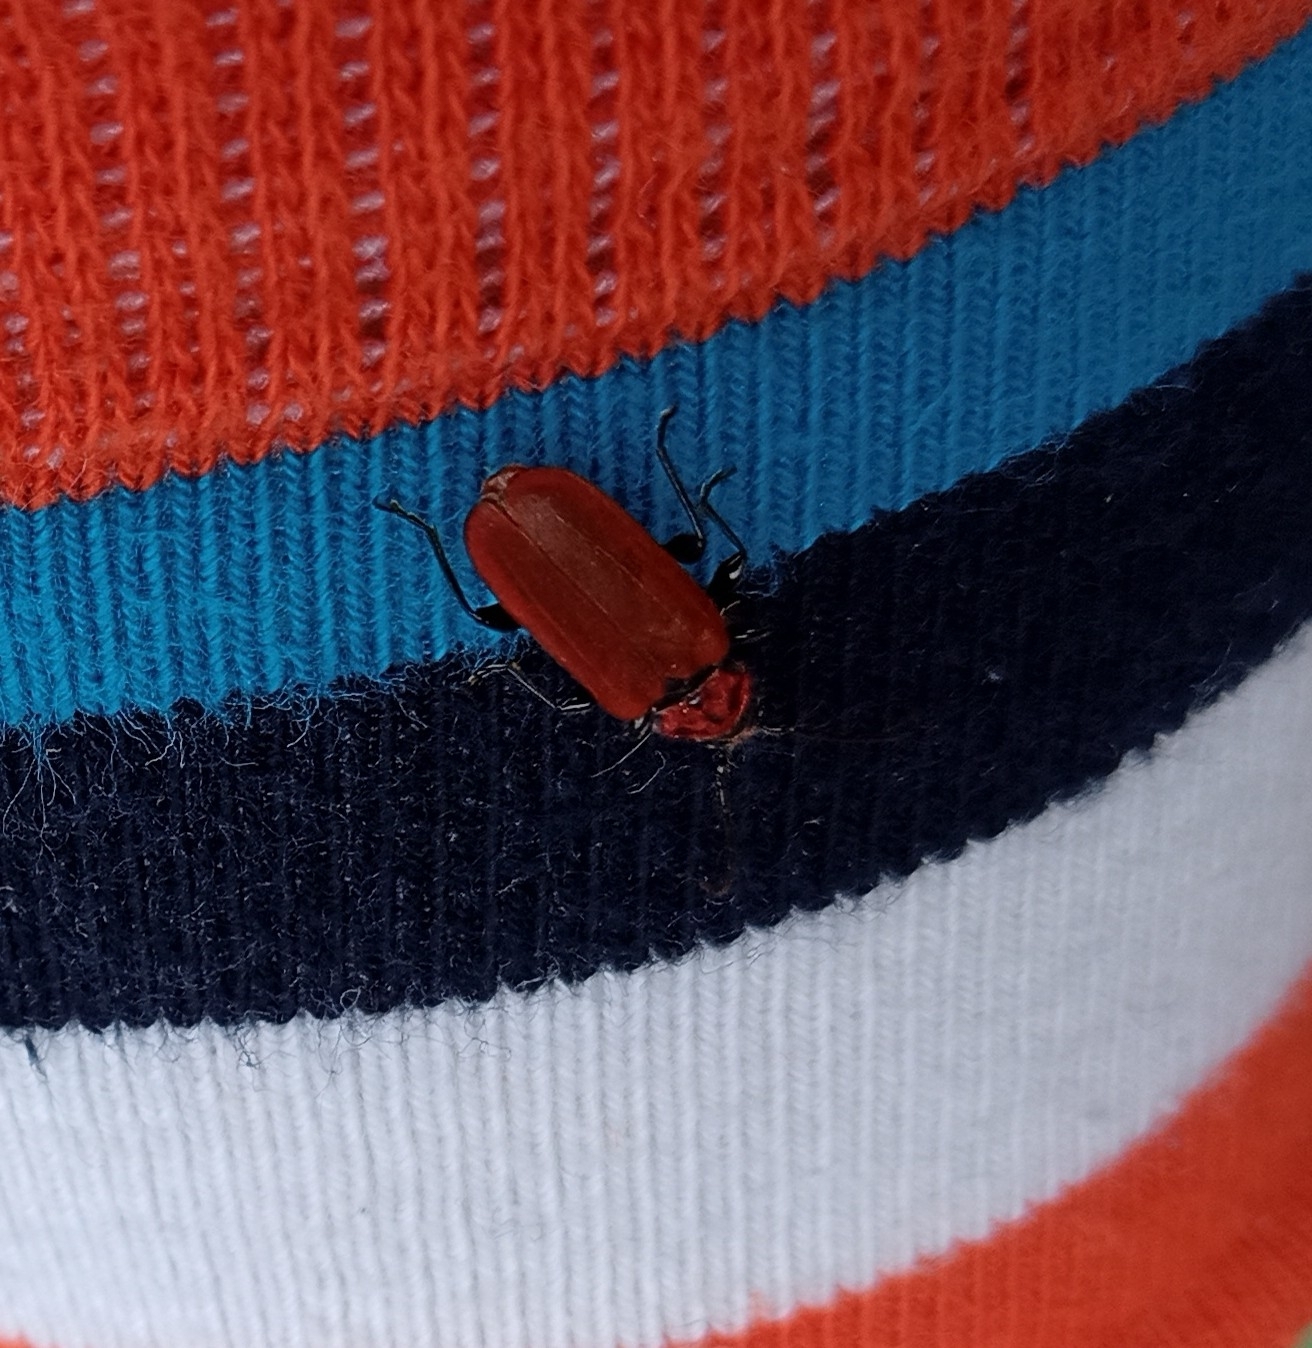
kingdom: Animalia
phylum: Arthropoda
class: Insecta
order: Coleoptera
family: Cerambycidae
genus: Pyrrhidium
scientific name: Pyrrhidium sanguineum
